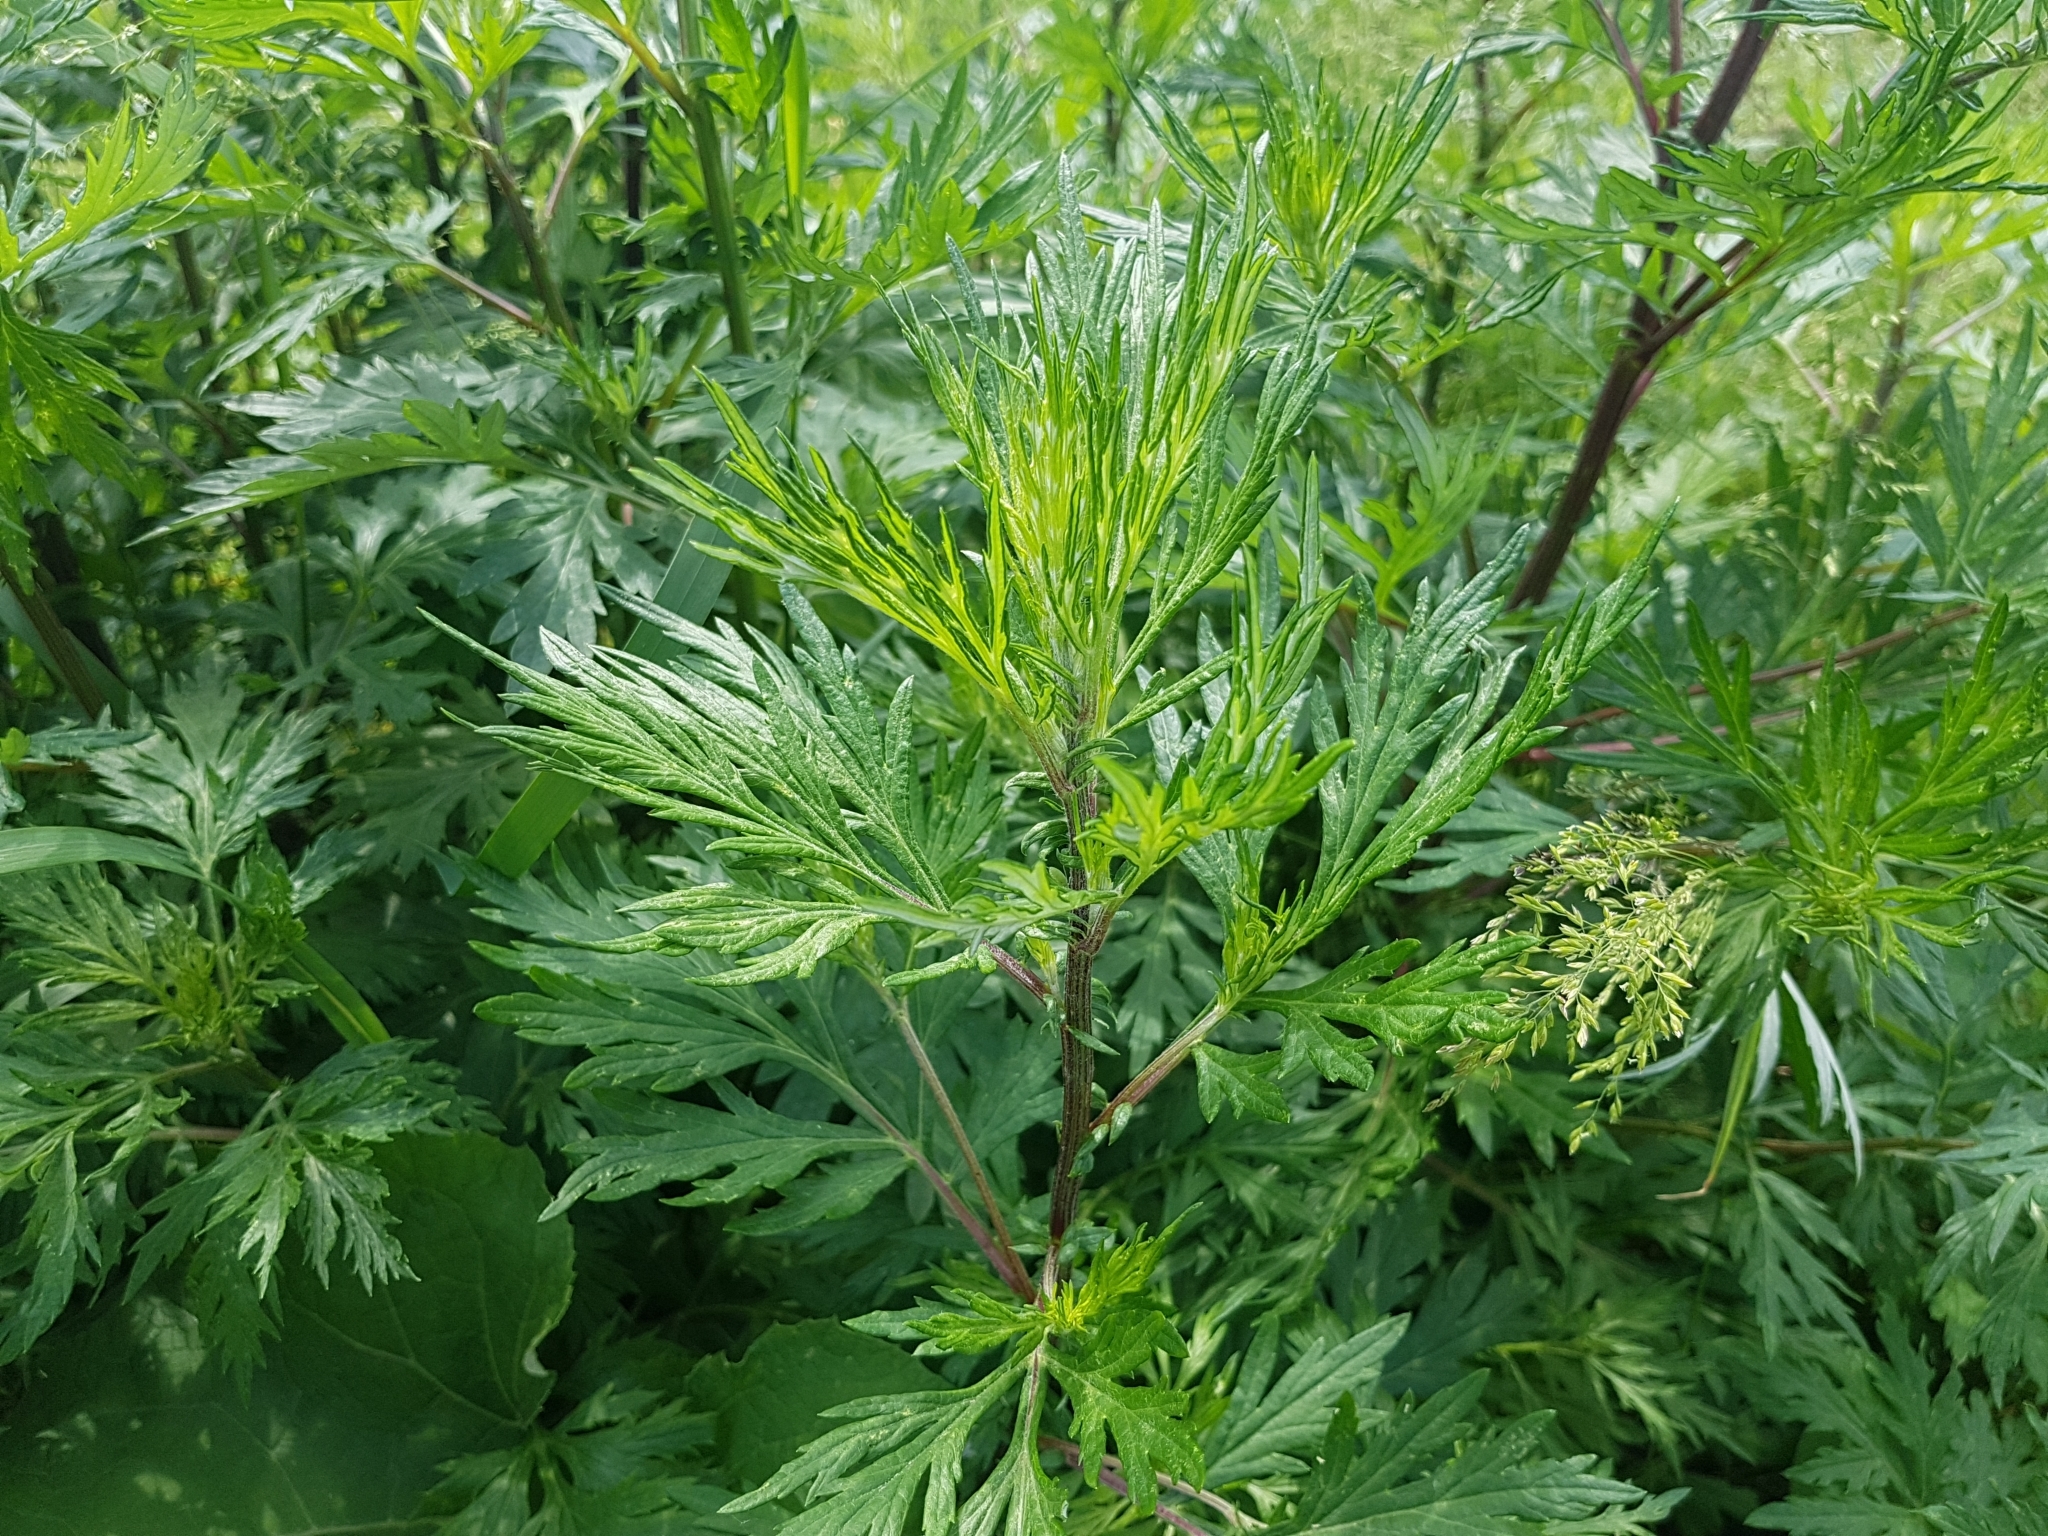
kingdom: Plantae
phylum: Tracheophyta
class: Magnoliopsida
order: Asterales
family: Asteraceae
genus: Artemisia
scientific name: Artemisia vulgaris
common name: Mugwort
